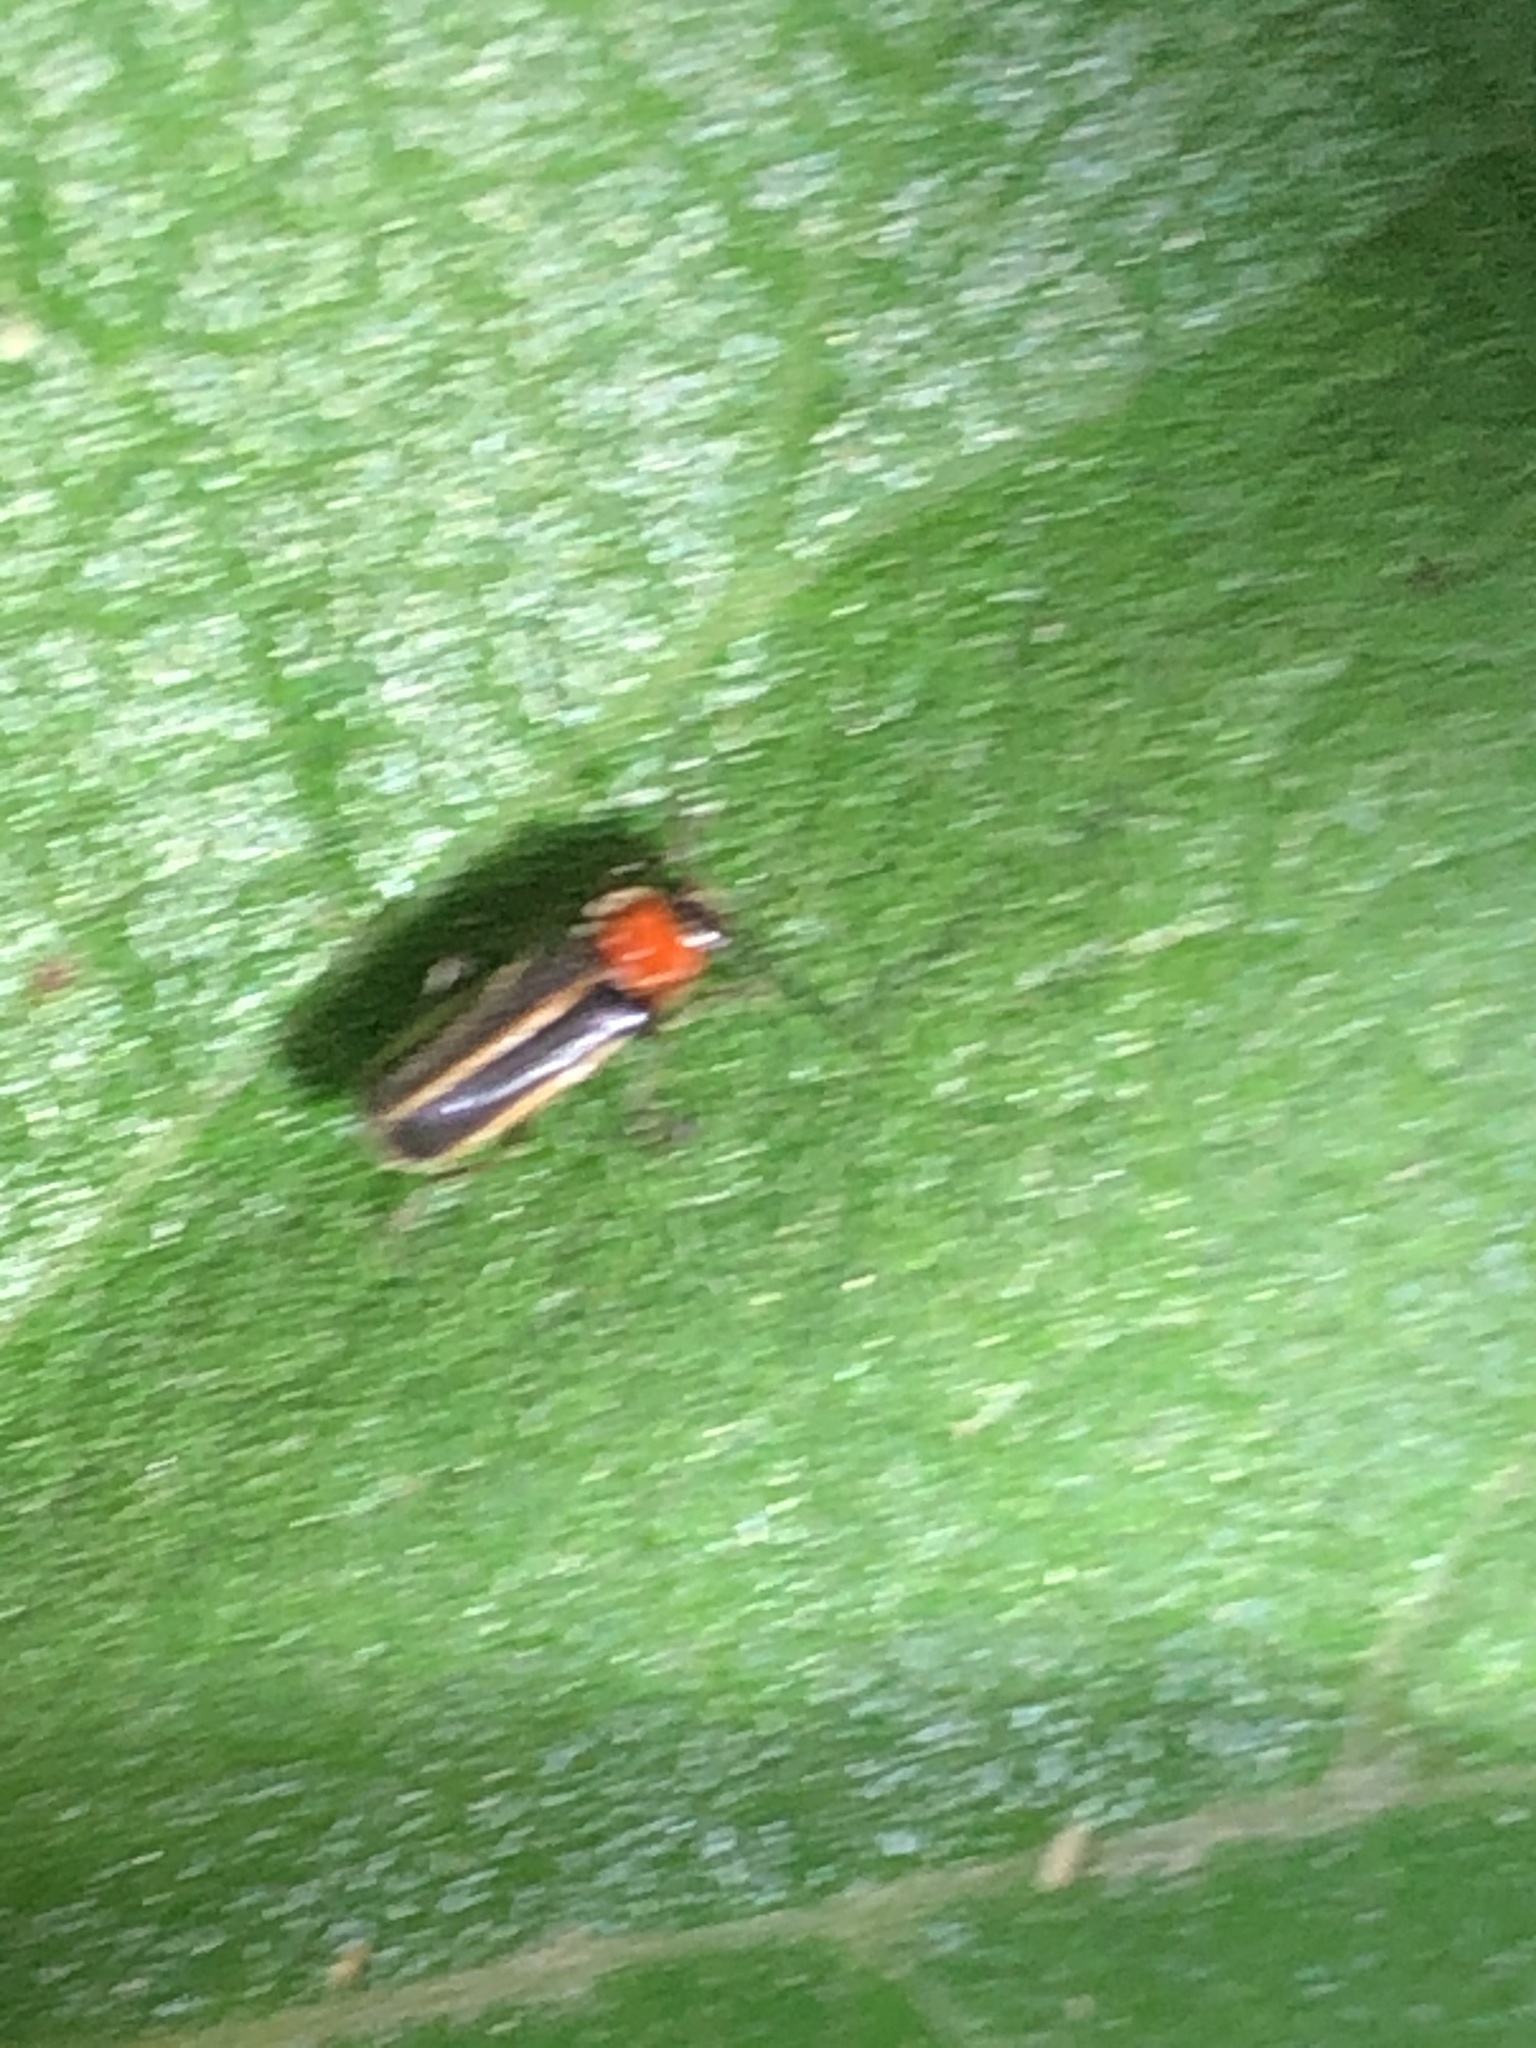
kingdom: Animalia
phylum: Arthropoda
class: Insecta
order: Coleoptera
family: Cantharidae
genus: Ditemnus
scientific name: Ditemnus
